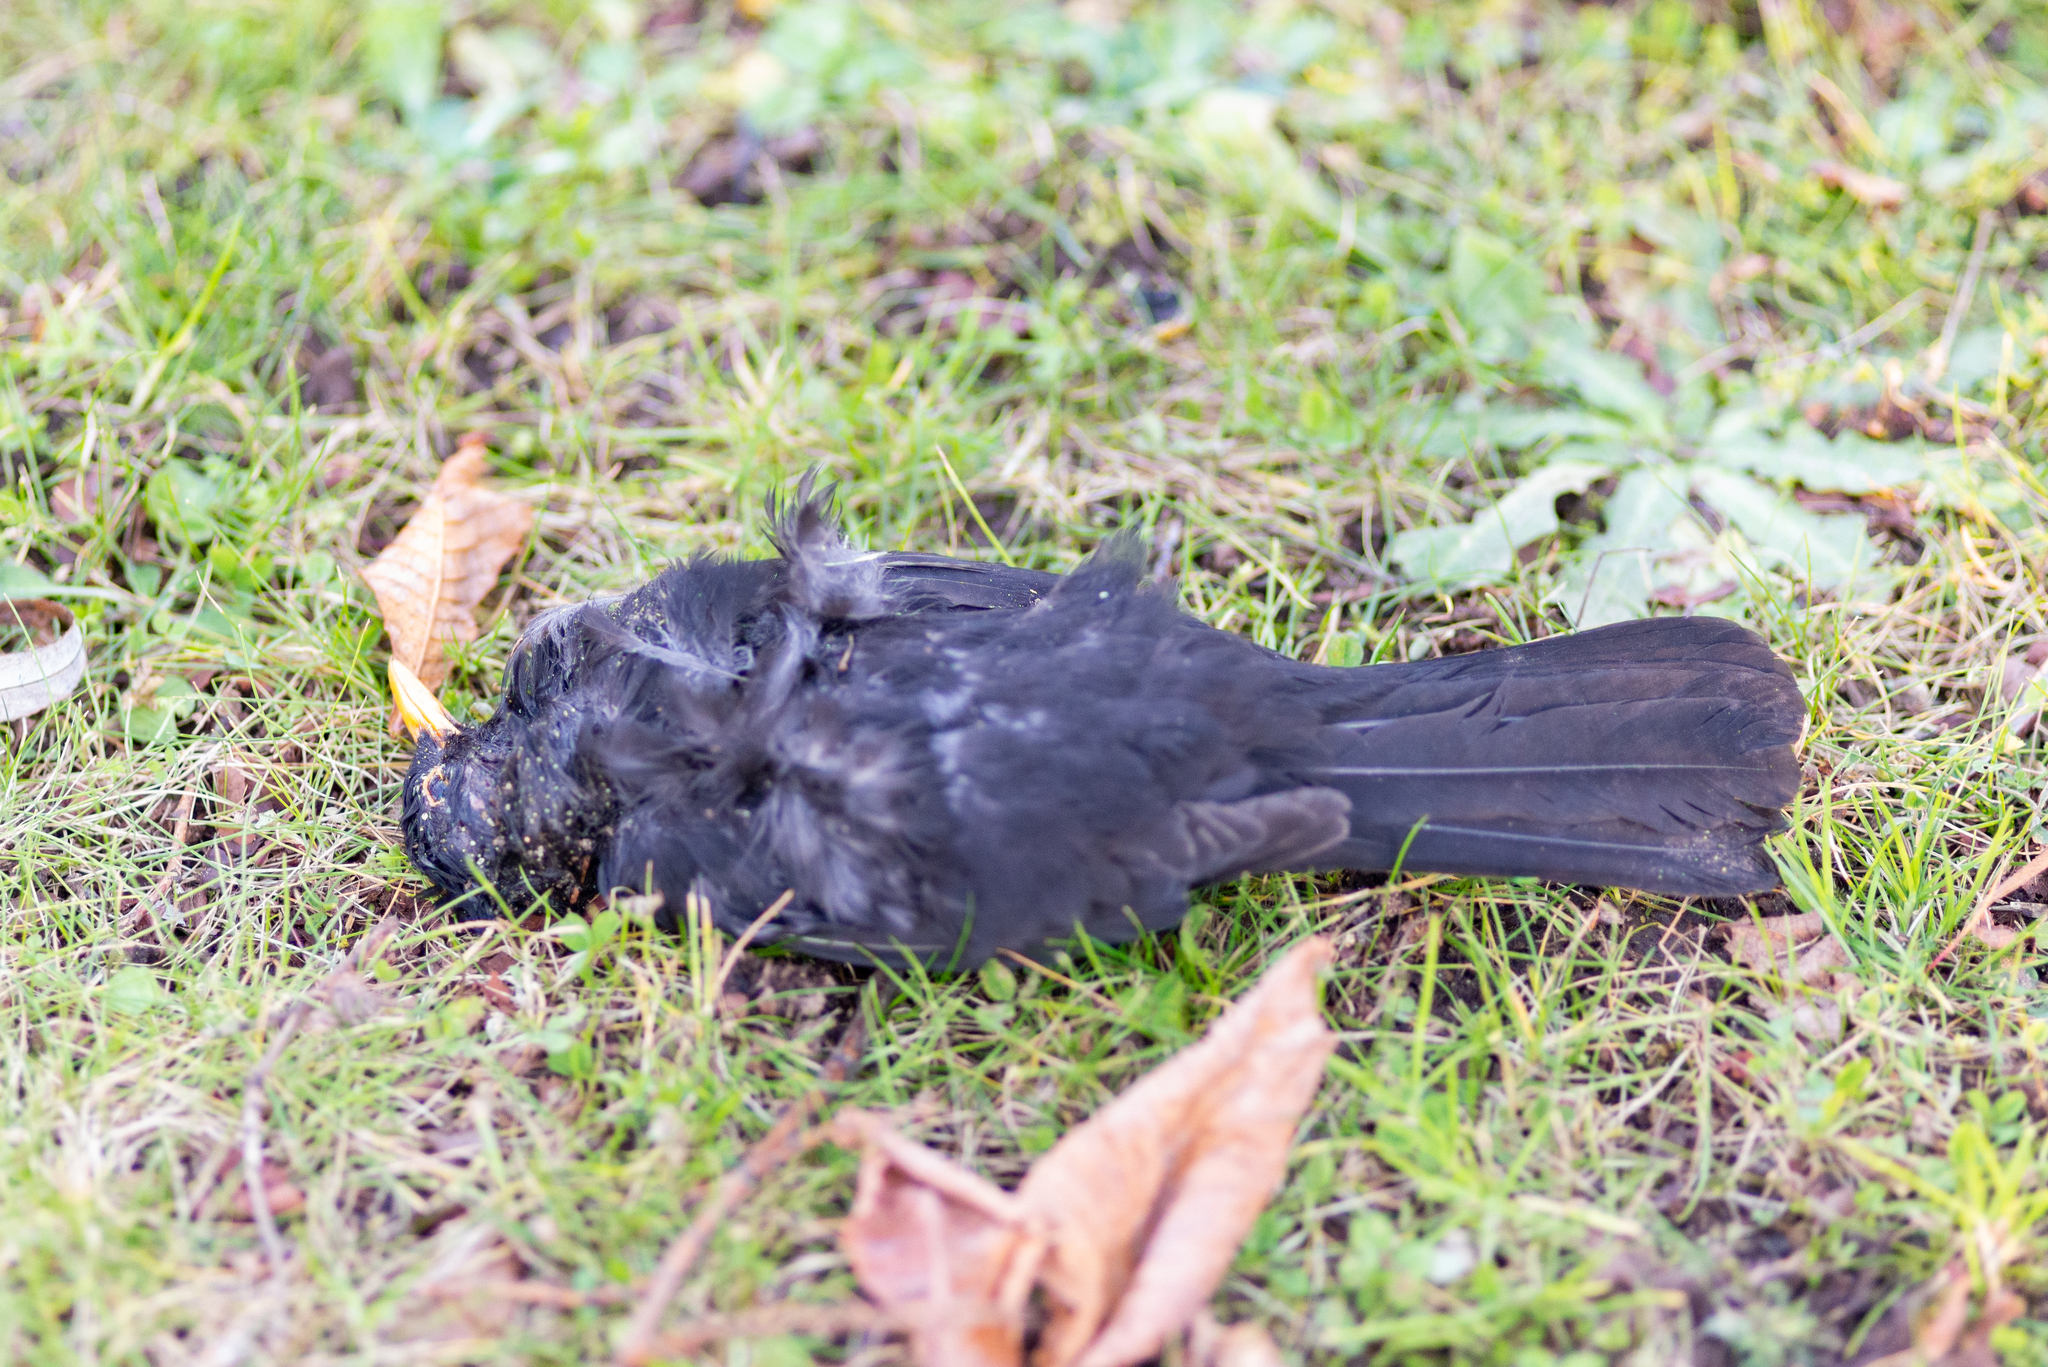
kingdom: Animalia
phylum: Chordata
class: Aves
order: Passeriformes
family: Turdidae
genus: Turdus
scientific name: Turdus merula
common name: Common blackbird
